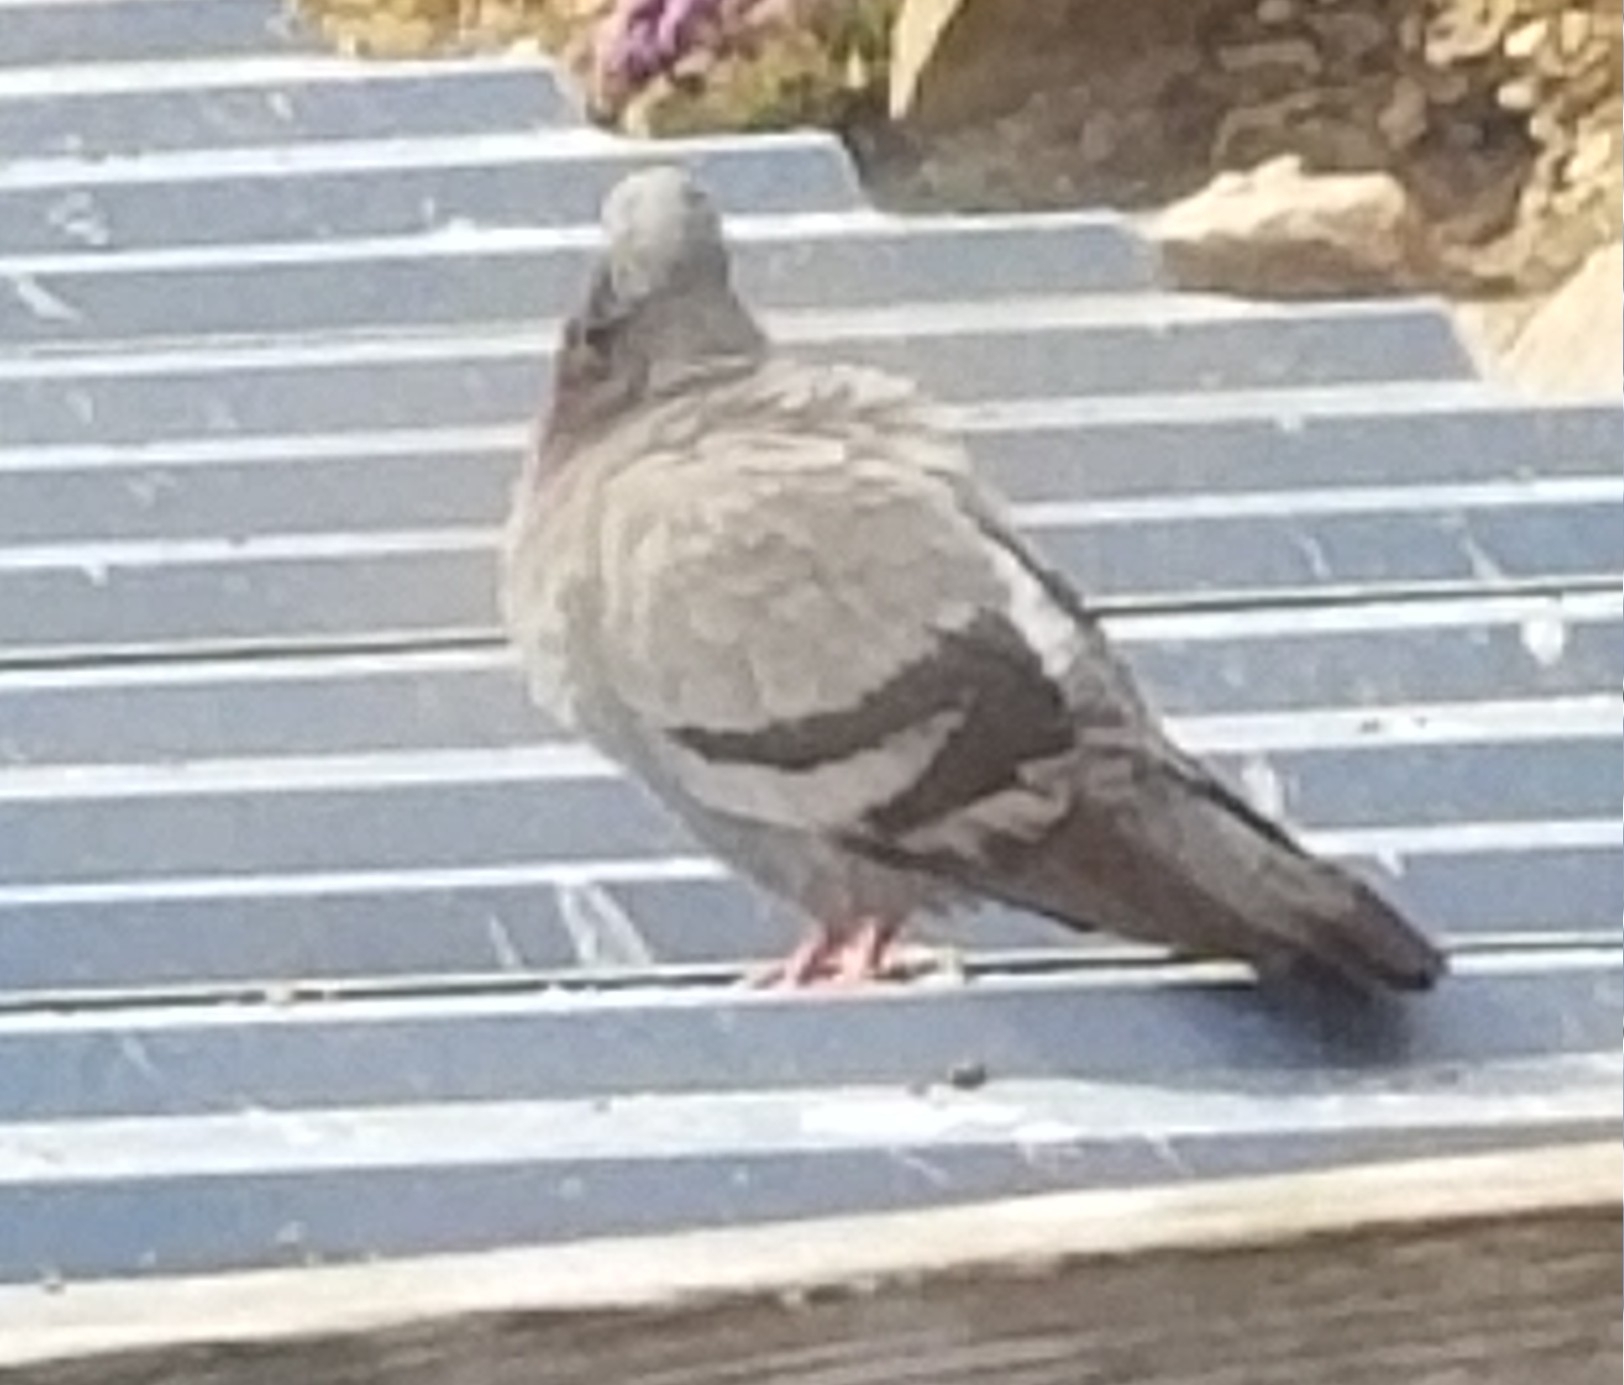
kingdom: Animalia
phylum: Chordata
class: Aves
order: Columbiformes
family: Columbidae
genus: Columba
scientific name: Columba livia
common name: Rock pigeon
